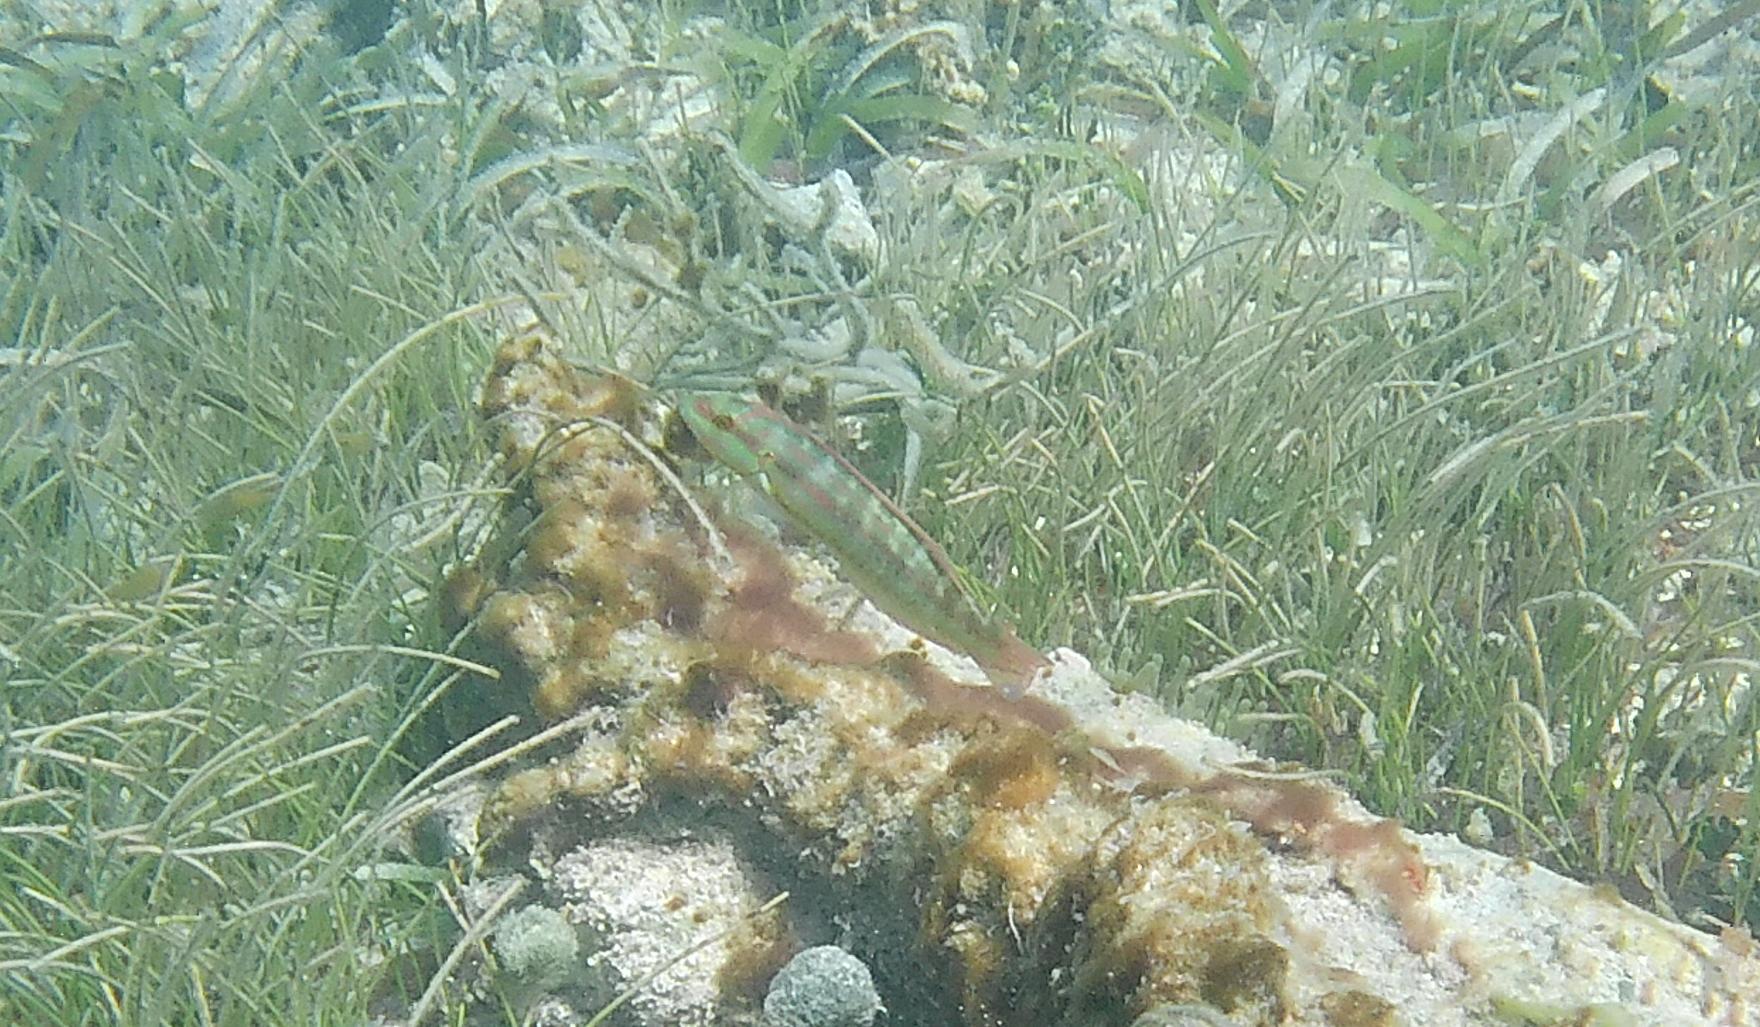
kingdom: Animalia
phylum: Chordata
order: Perciformes
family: Labridae
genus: Halichoeres
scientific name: Halichoeres bivittatus
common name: Slippery dick
